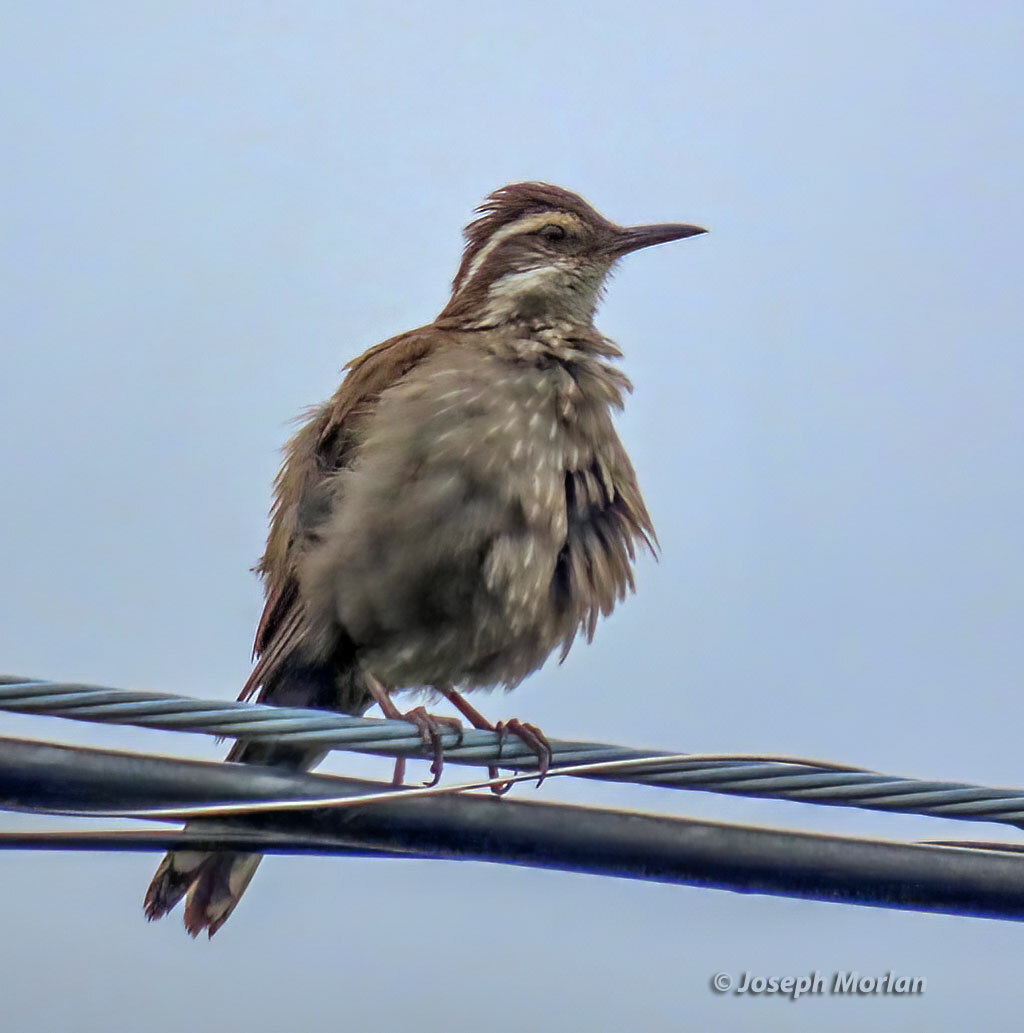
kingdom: Animalia
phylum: Chordata
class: Aves
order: Passeriformes
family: Furnariidae
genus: Cinclodes
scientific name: Cinclodes patagonicus
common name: Dark-bellied cinclodes
